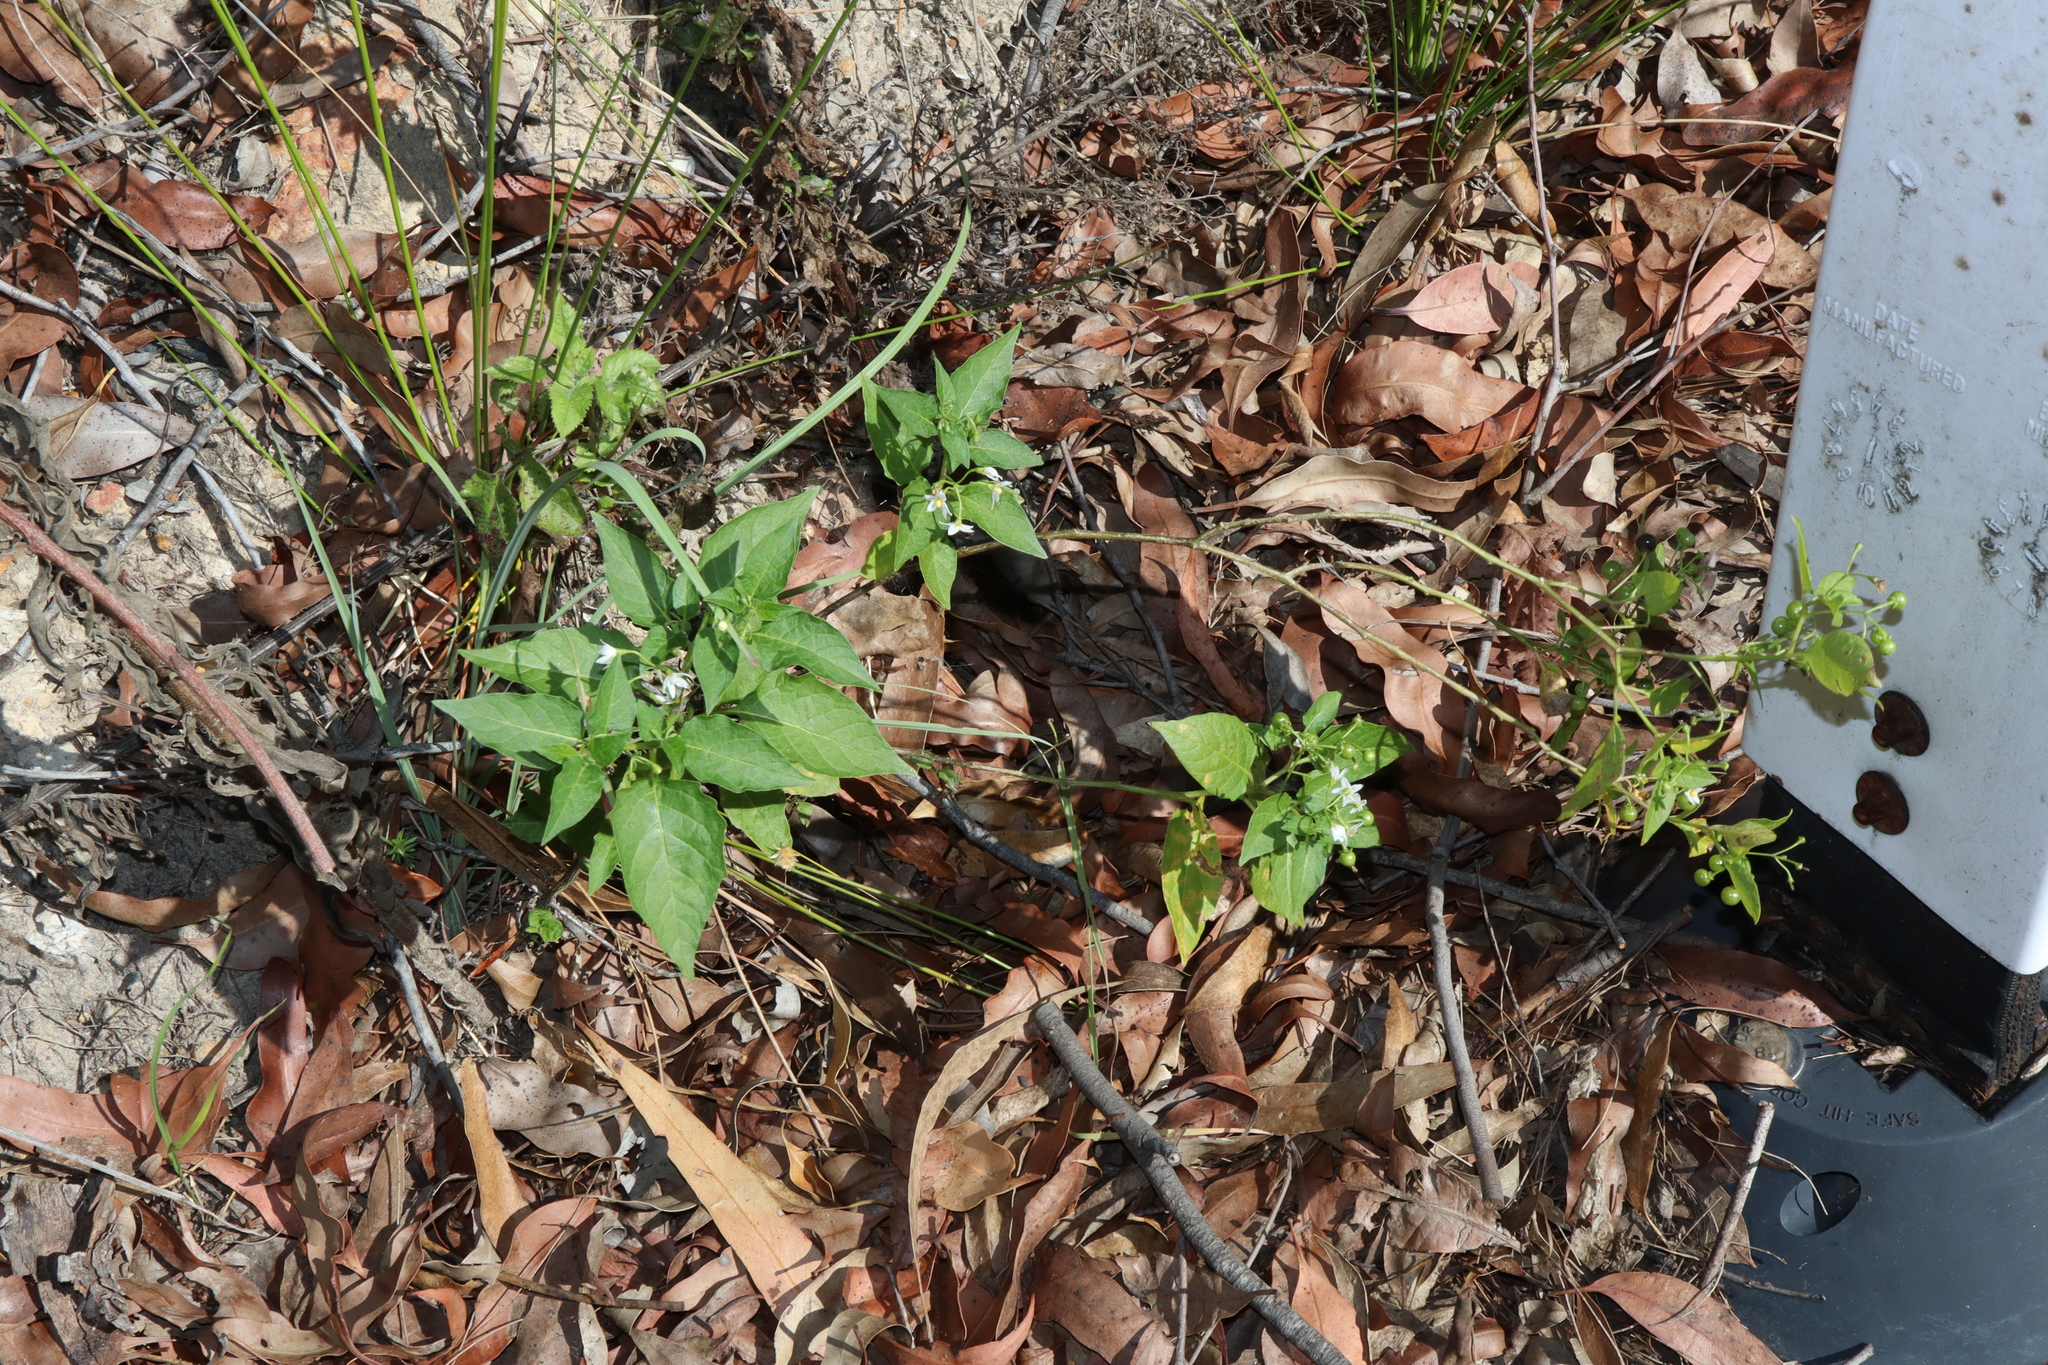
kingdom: Plantae
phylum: Tracheophyta
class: Magnoliopsida
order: Solanales
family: Solanaceae
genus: Solanum
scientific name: Solanum americanum
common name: American black nightshade
